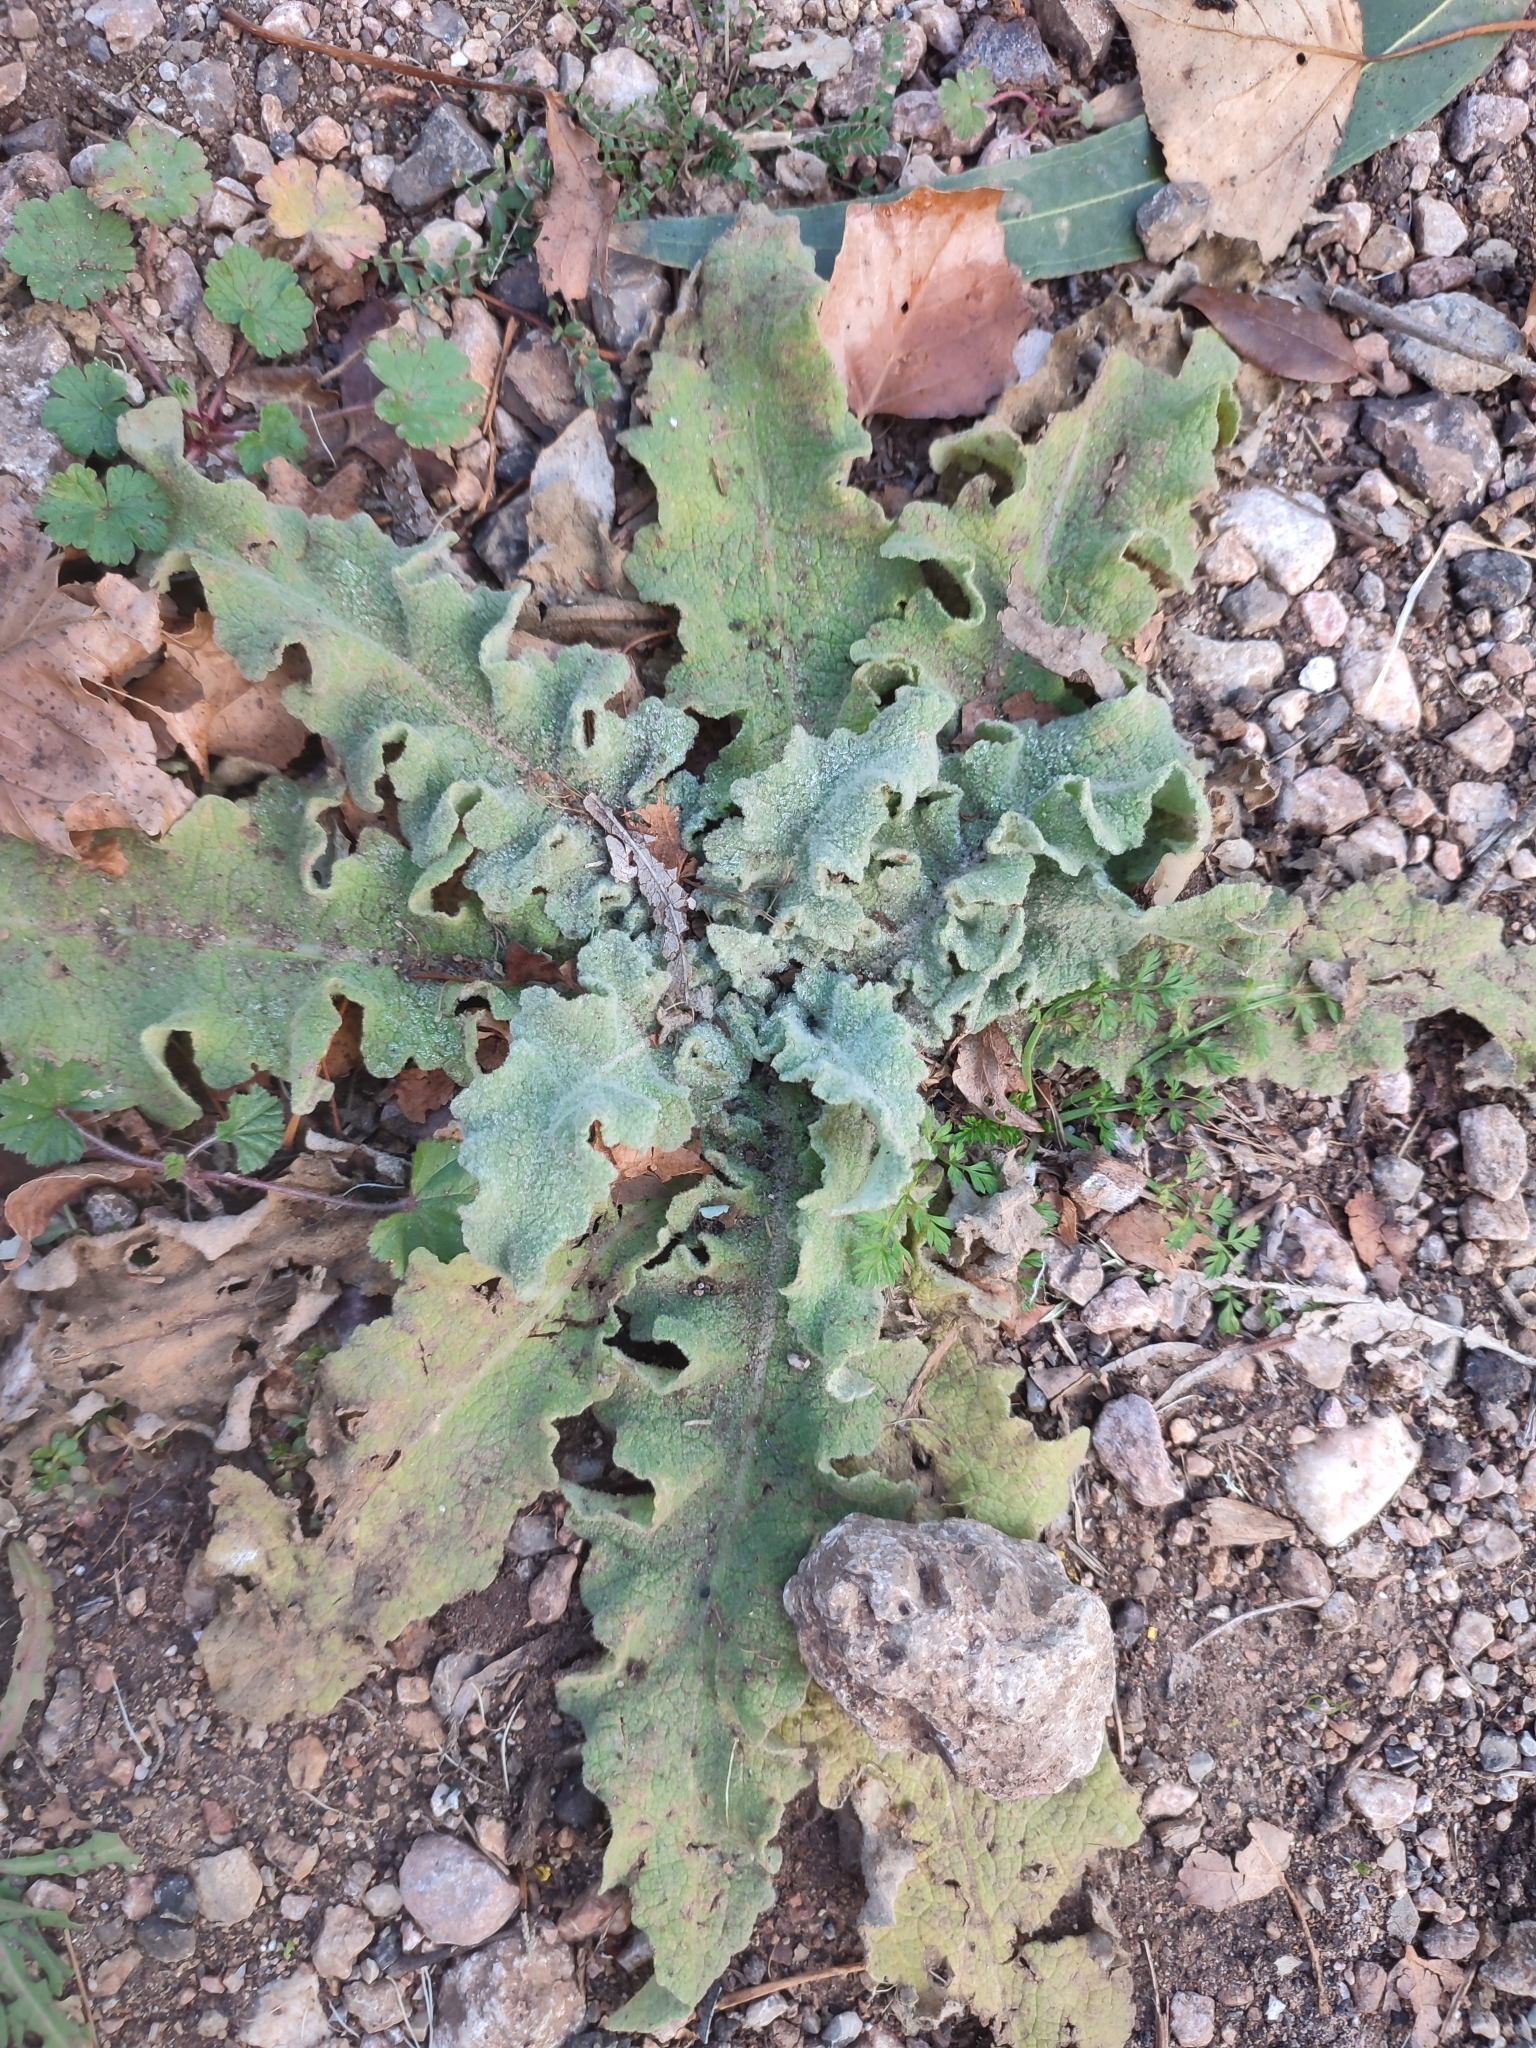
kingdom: Plantae
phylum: Tracheophyta
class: Magnoliopsida
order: Lamiales
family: Scrophulariaceae
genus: Verbascum
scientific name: Verbascum sinuatum
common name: Wavyleaf mullein
